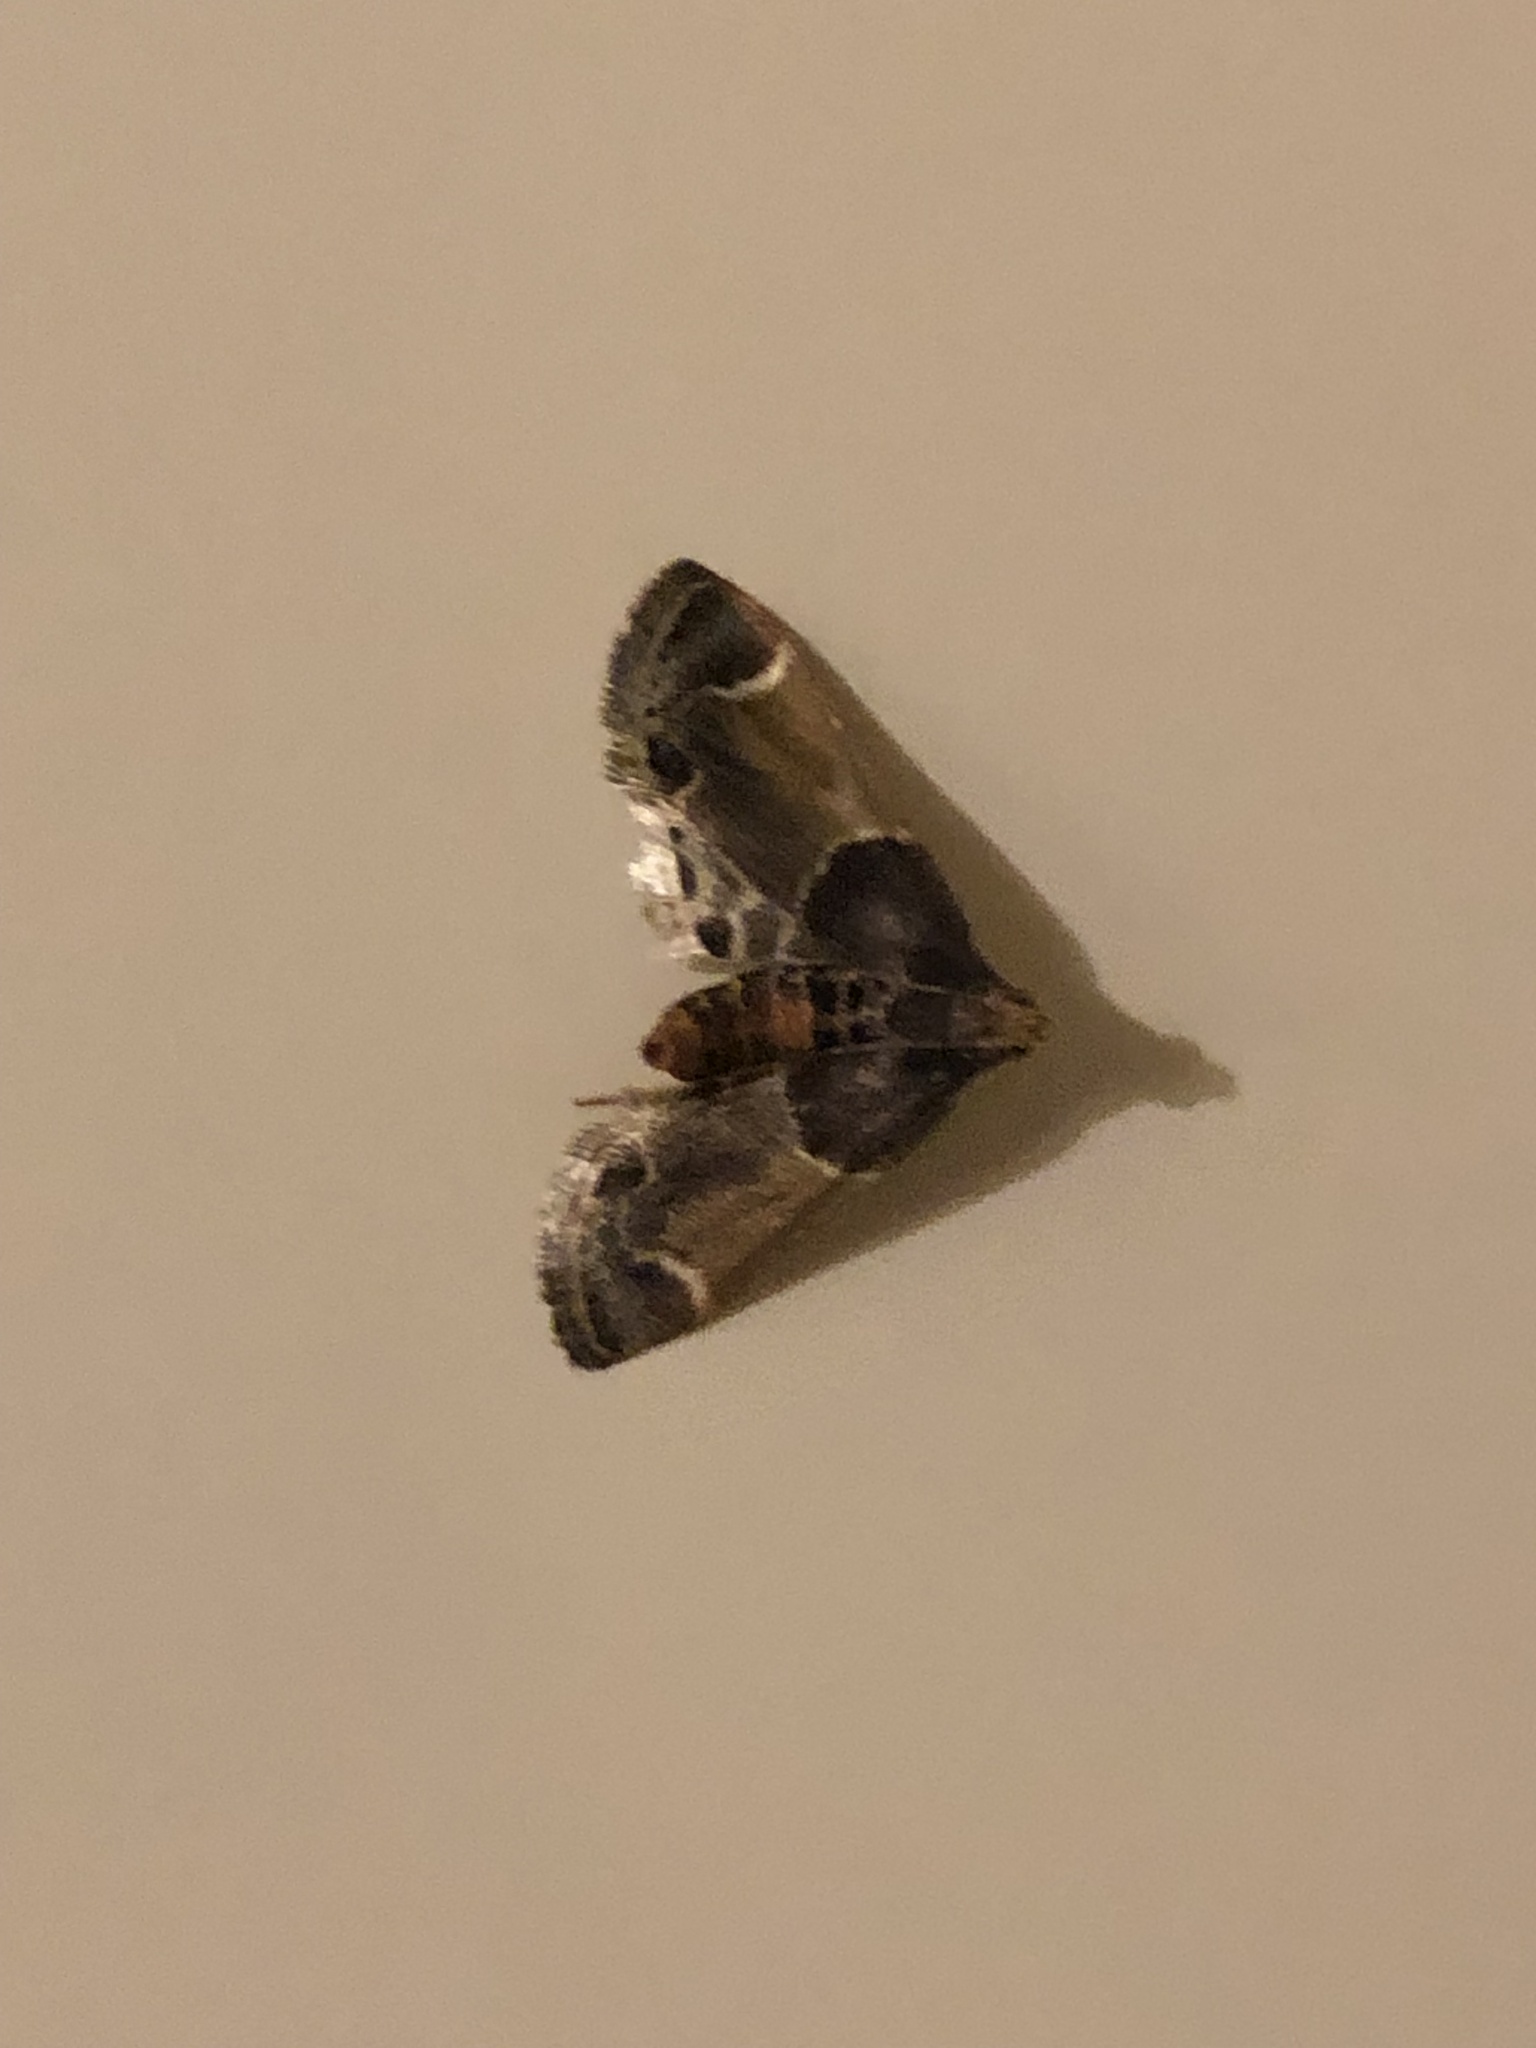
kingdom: Animalia
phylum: Arthropoda
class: Insecta
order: Lepidoptera
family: Pyralidae
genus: Pyralis
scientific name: Pyralis farinalis
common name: Meal moth
